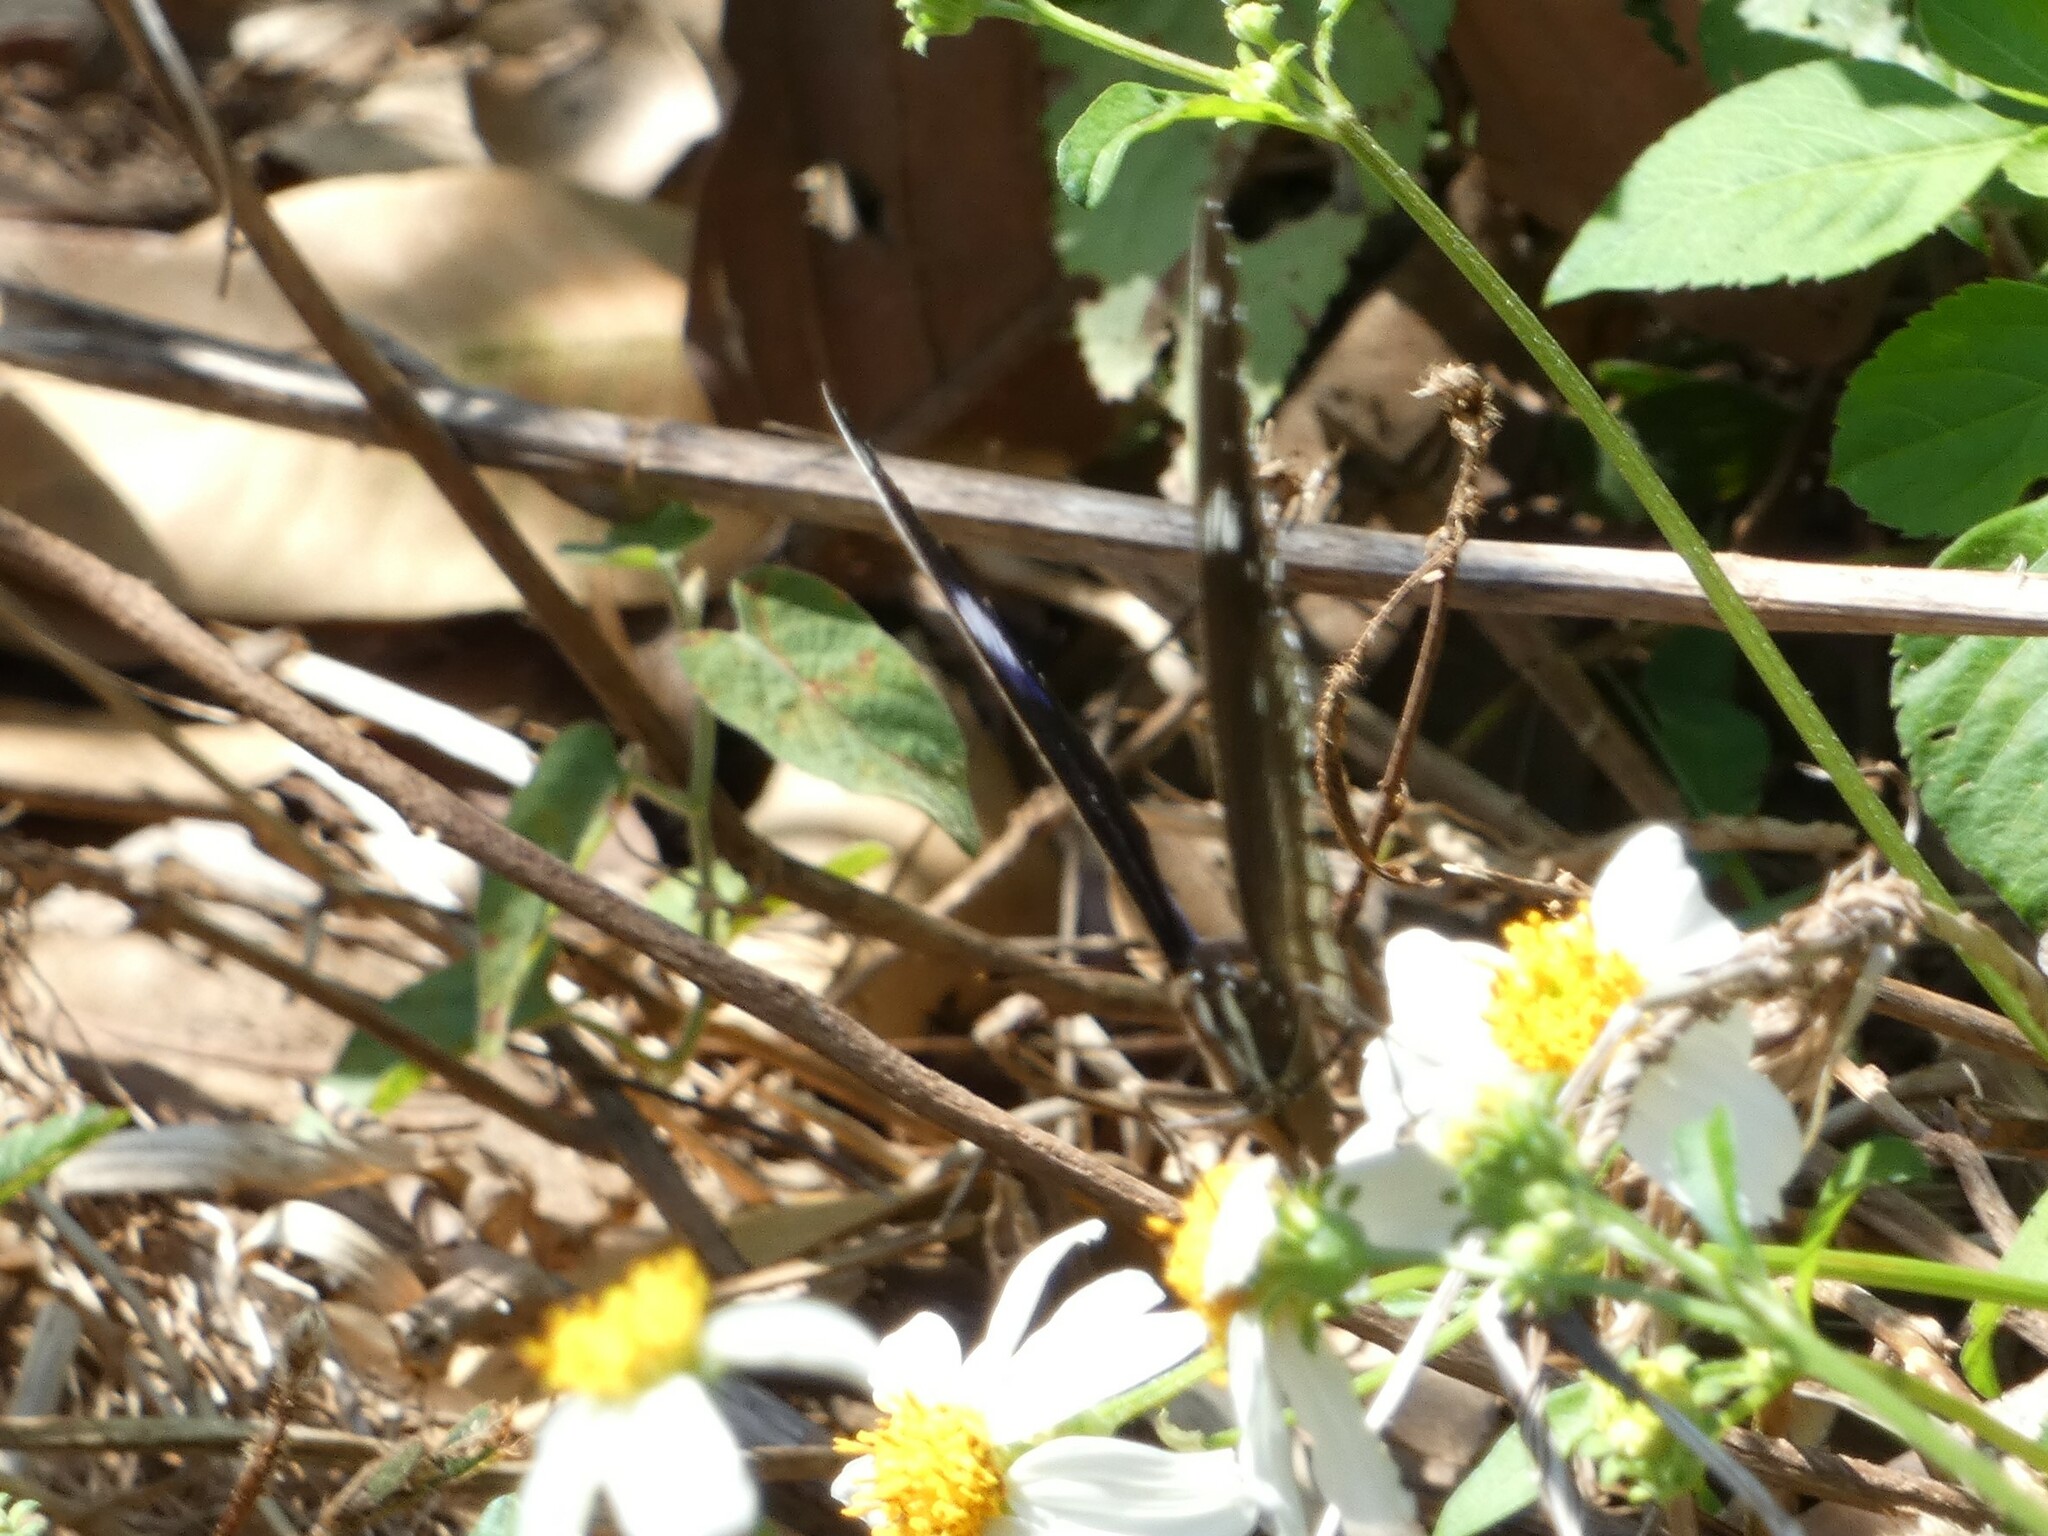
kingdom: Animalia
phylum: Arthropoda
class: Insecta
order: Lepidoptera
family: Nymphalidae
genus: Hypolimnas
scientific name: Hypolimnas bolina
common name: Great eggfly
